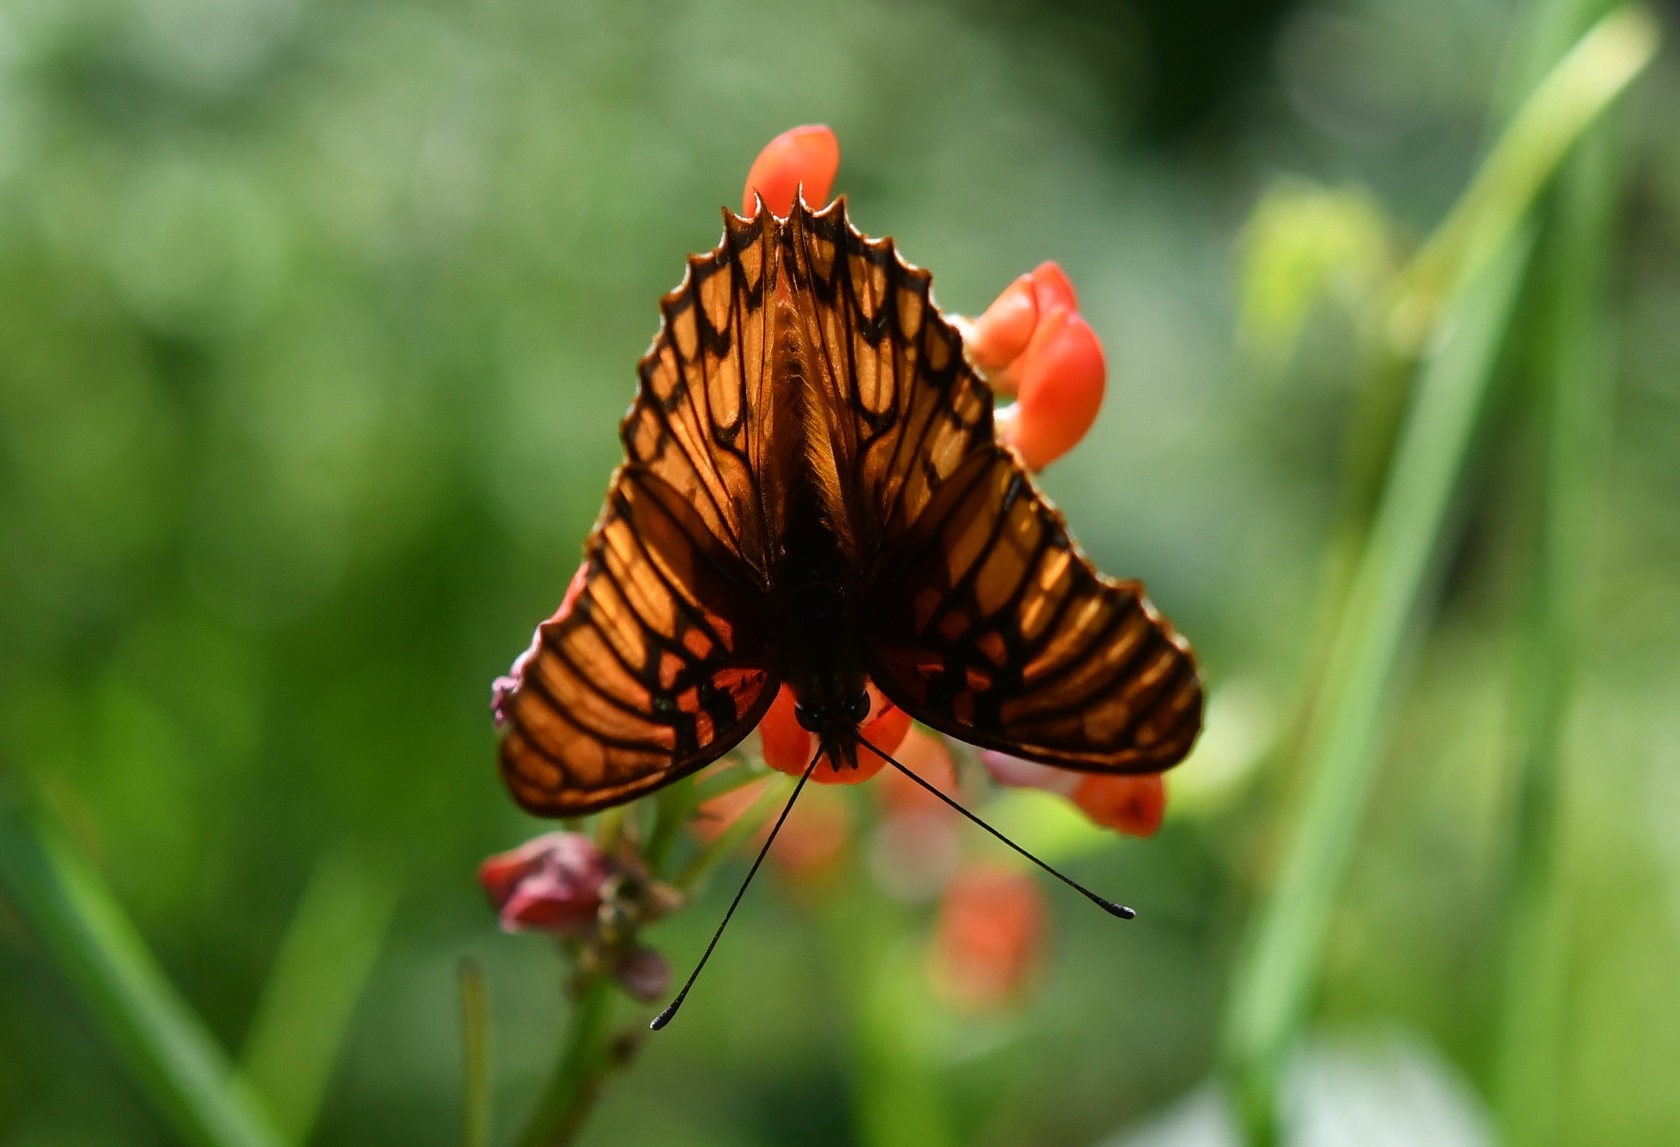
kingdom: Animalia
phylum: Arthropoda
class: Insecta
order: Lepidoptera
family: Nymphalidae
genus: Dione
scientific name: Dione moneta
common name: Mexican silverspot
